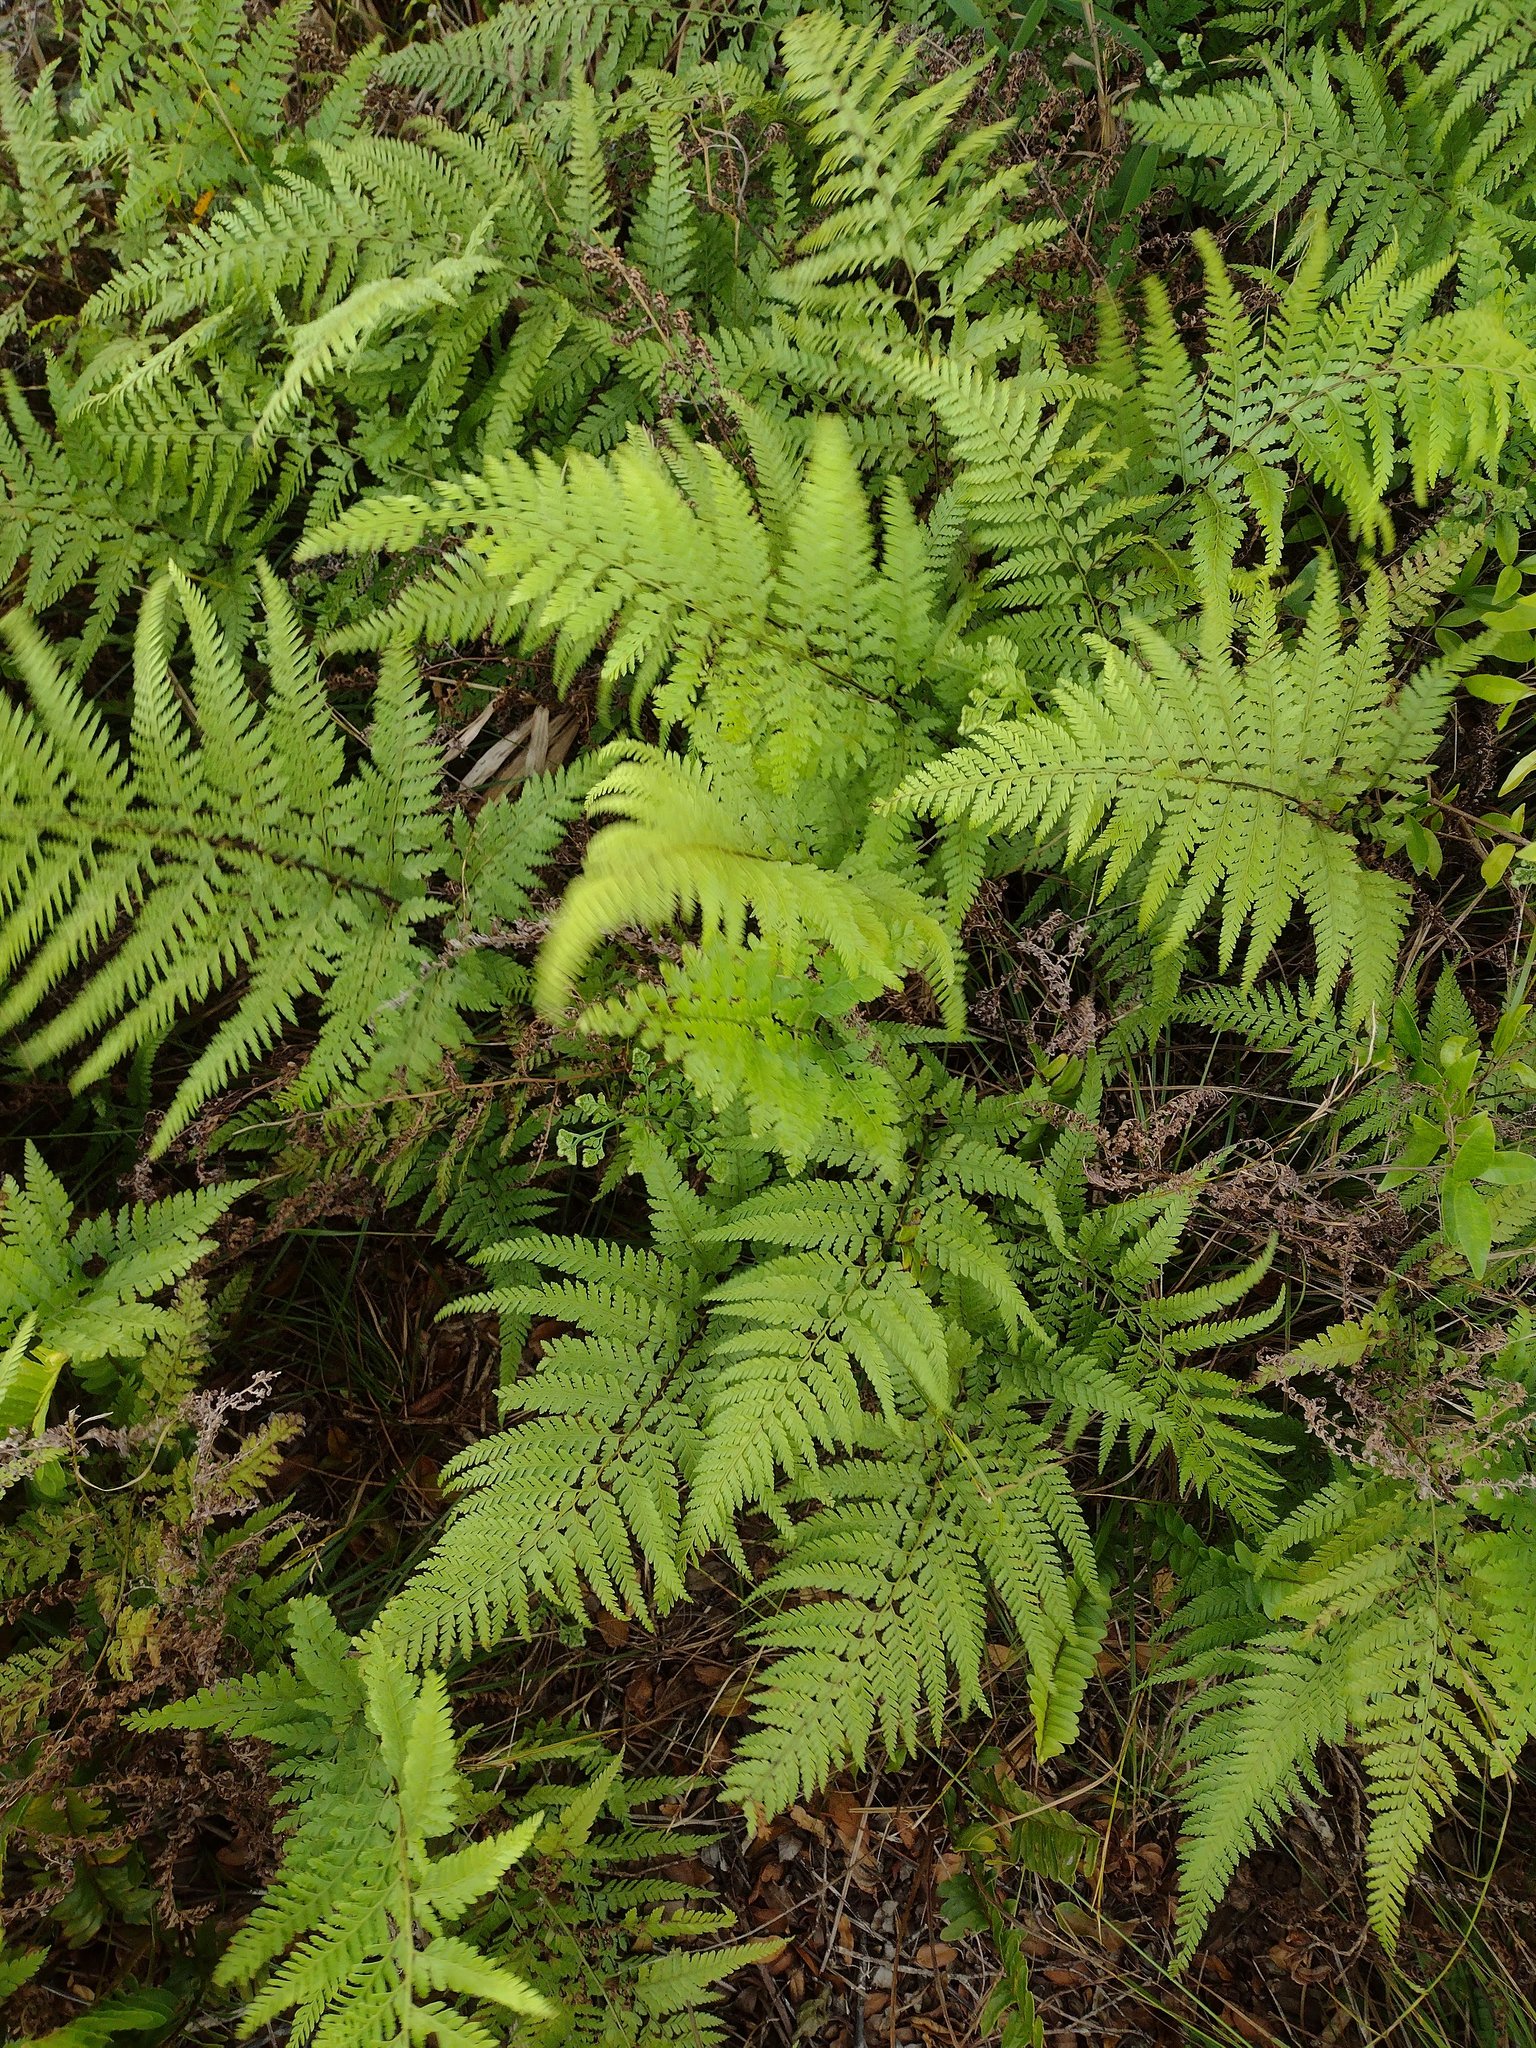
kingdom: Plantae
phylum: Tracheophyta
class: Polypodiopsida
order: Polypodiales
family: Dennstaedtiaceae
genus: Microlepia
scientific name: Microlepia setosa
